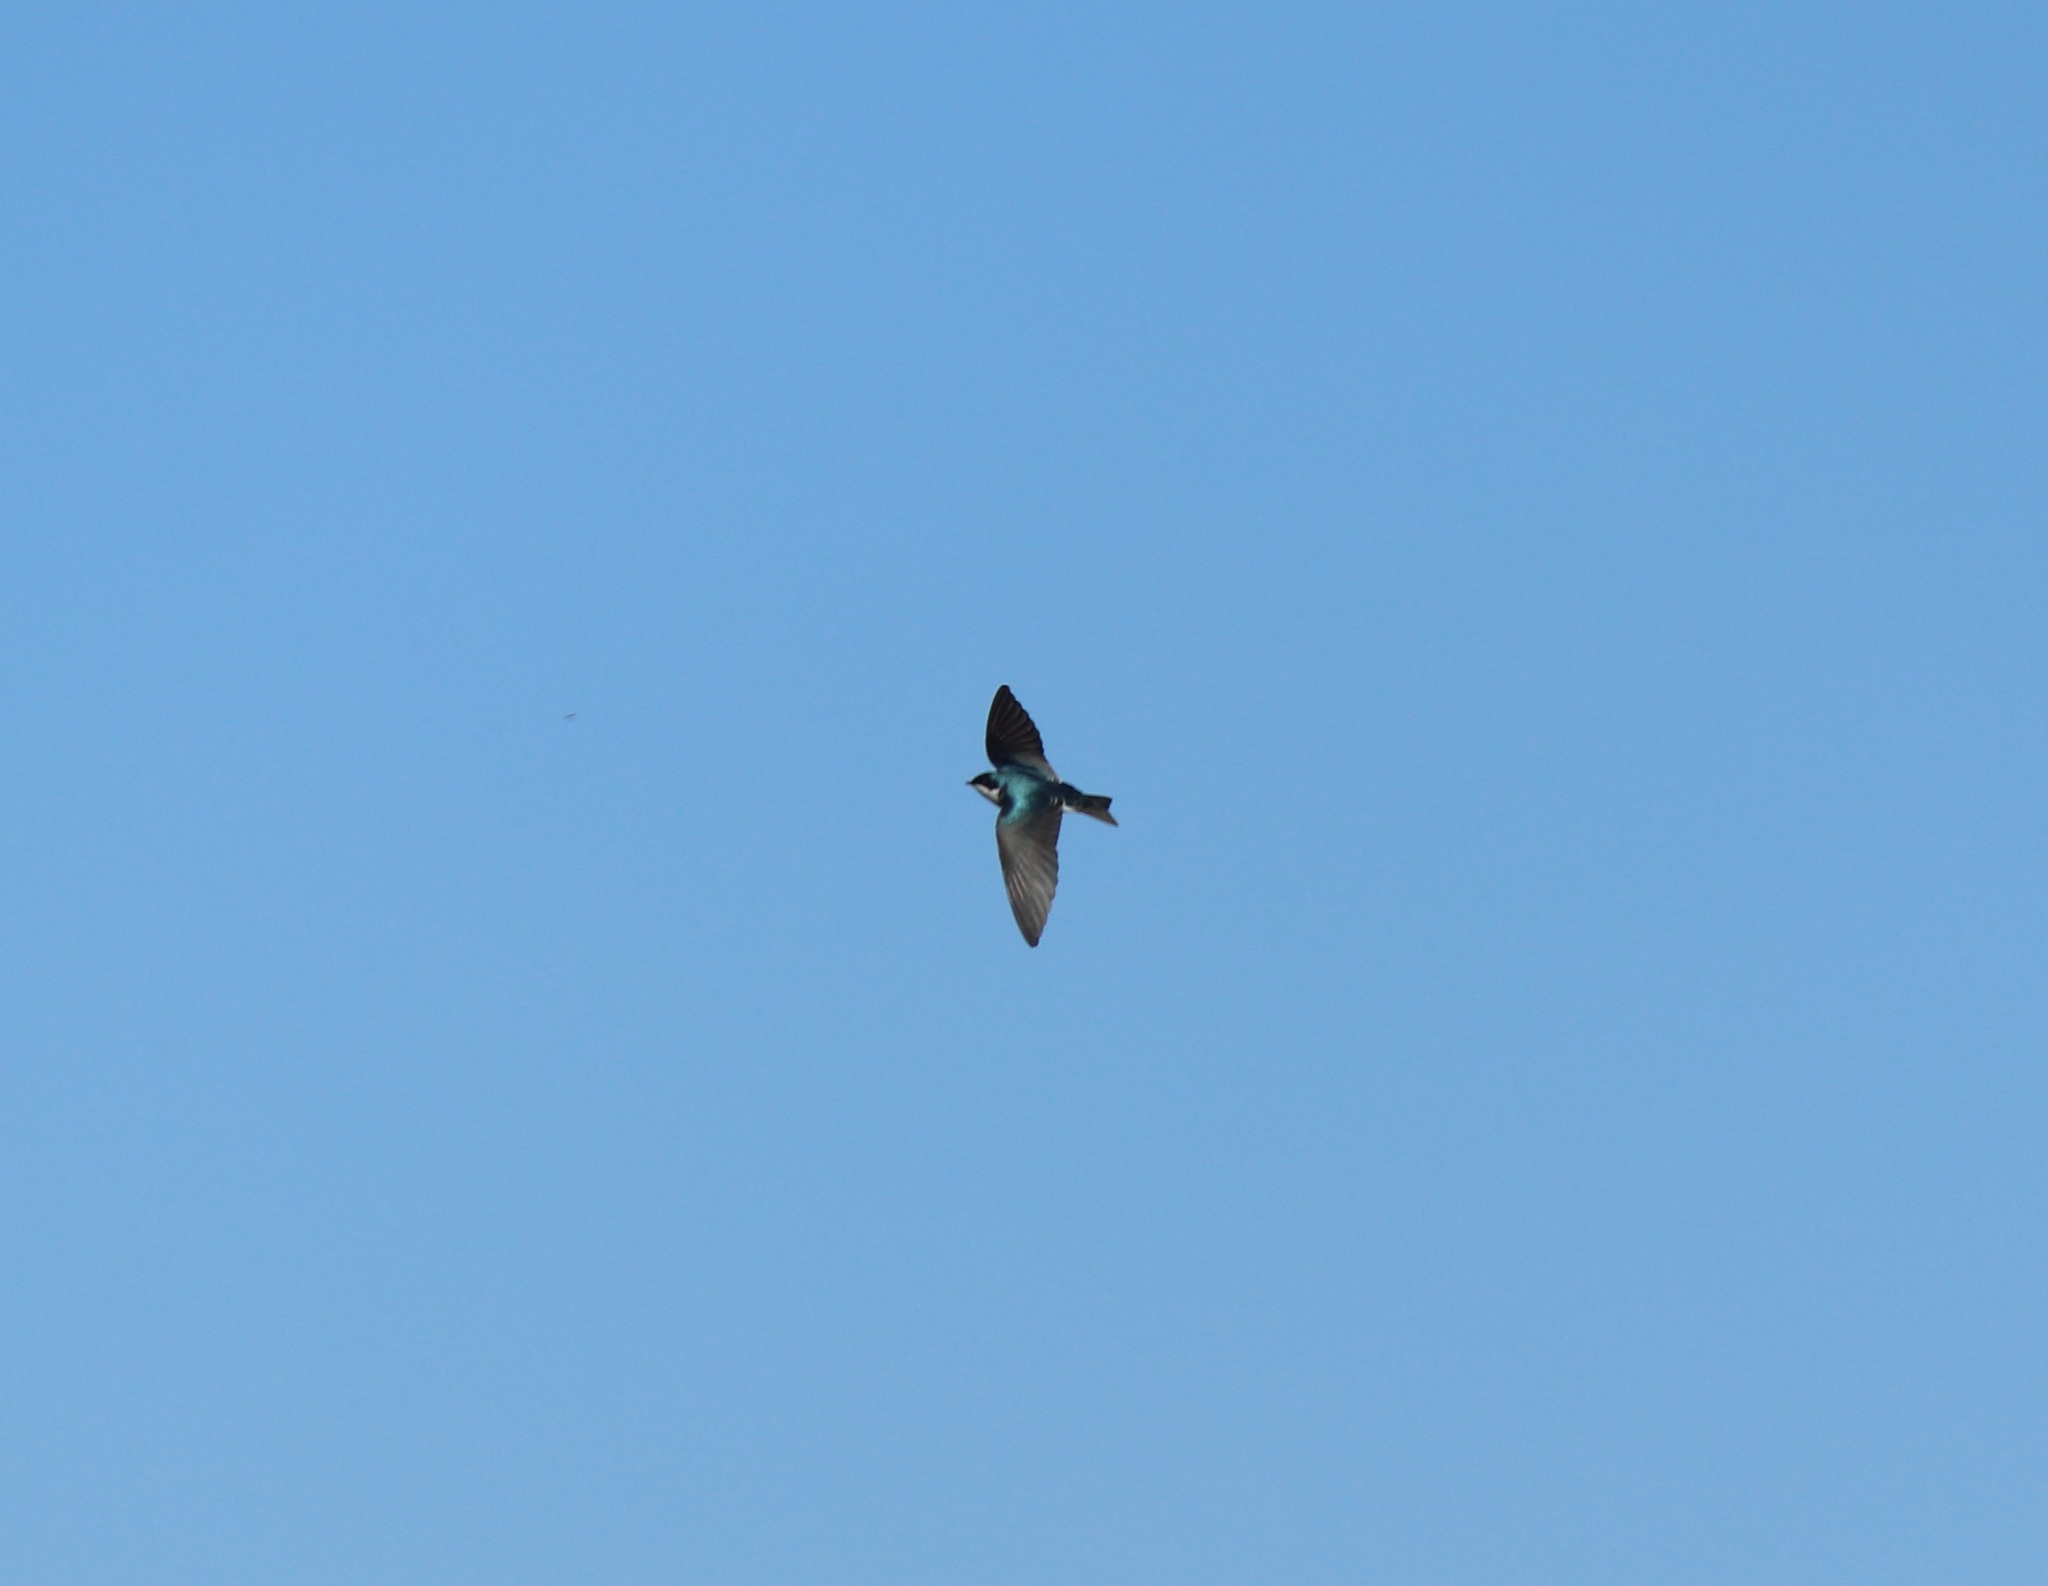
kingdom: Animalia
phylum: Chordata
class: Aves
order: Passeriformes
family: Hirundinidae
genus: Tachycineta
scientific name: Tachycineta bicolor
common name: Tree swallow
